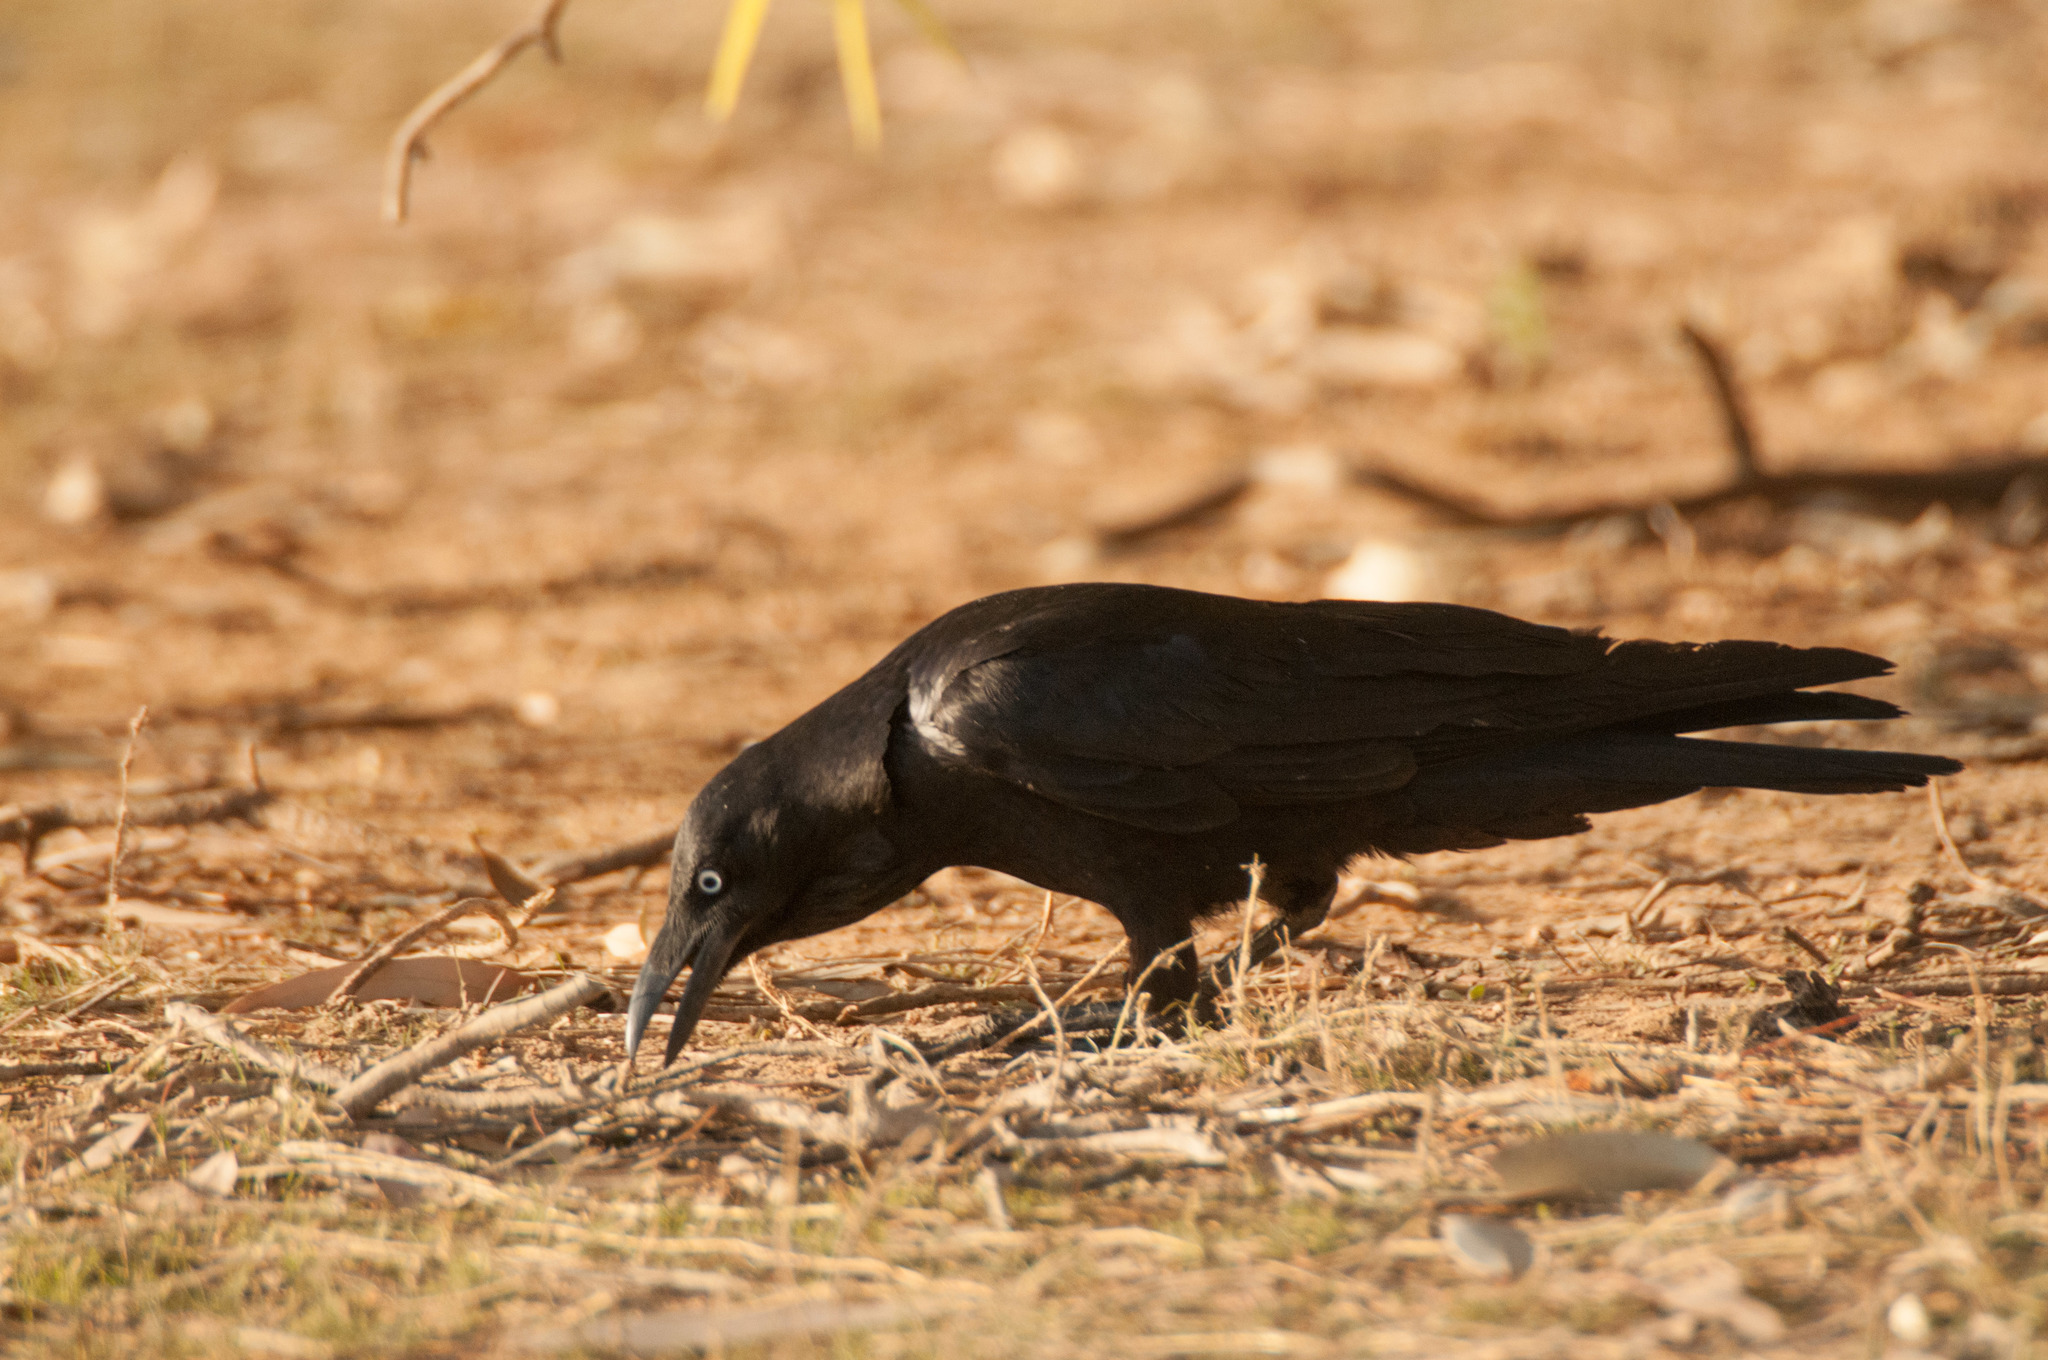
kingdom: Animalia
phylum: Chordata
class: Aves
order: Passeriformes
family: Corvidae
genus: Corvus
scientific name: Corvus coronoides
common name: Australian raven
